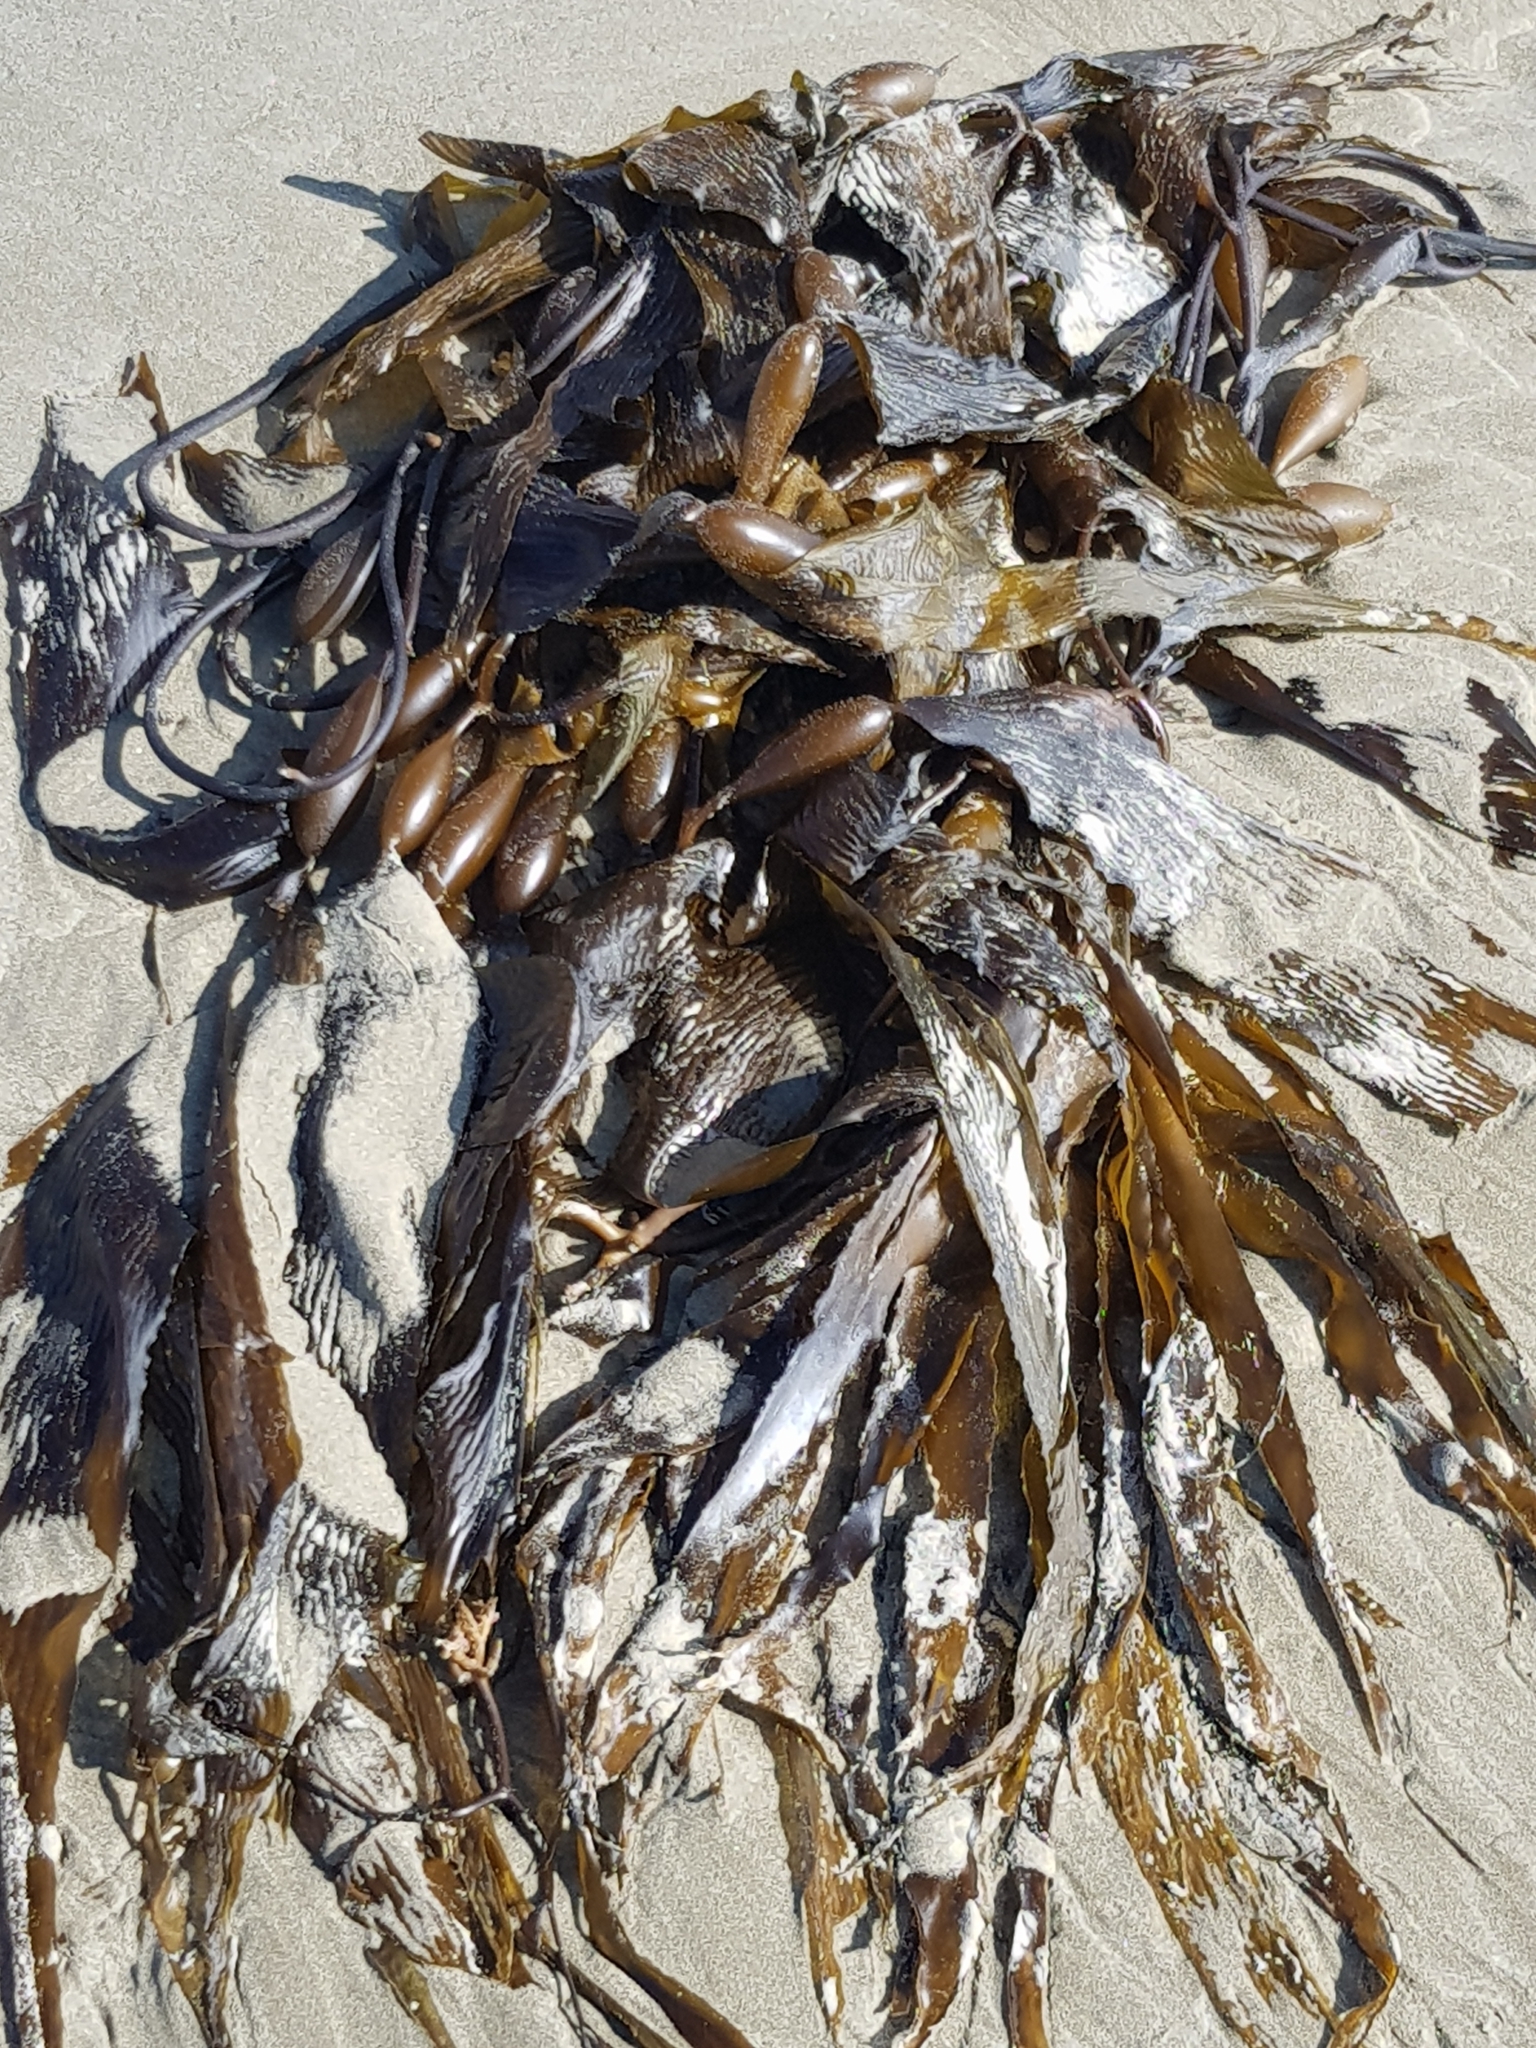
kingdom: Chromista
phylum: Ochrophyta
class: Phaeophyceae
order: Laminariales
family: Laminariaceae
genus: Macrocystis
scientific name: Macrocystis pyrifera
